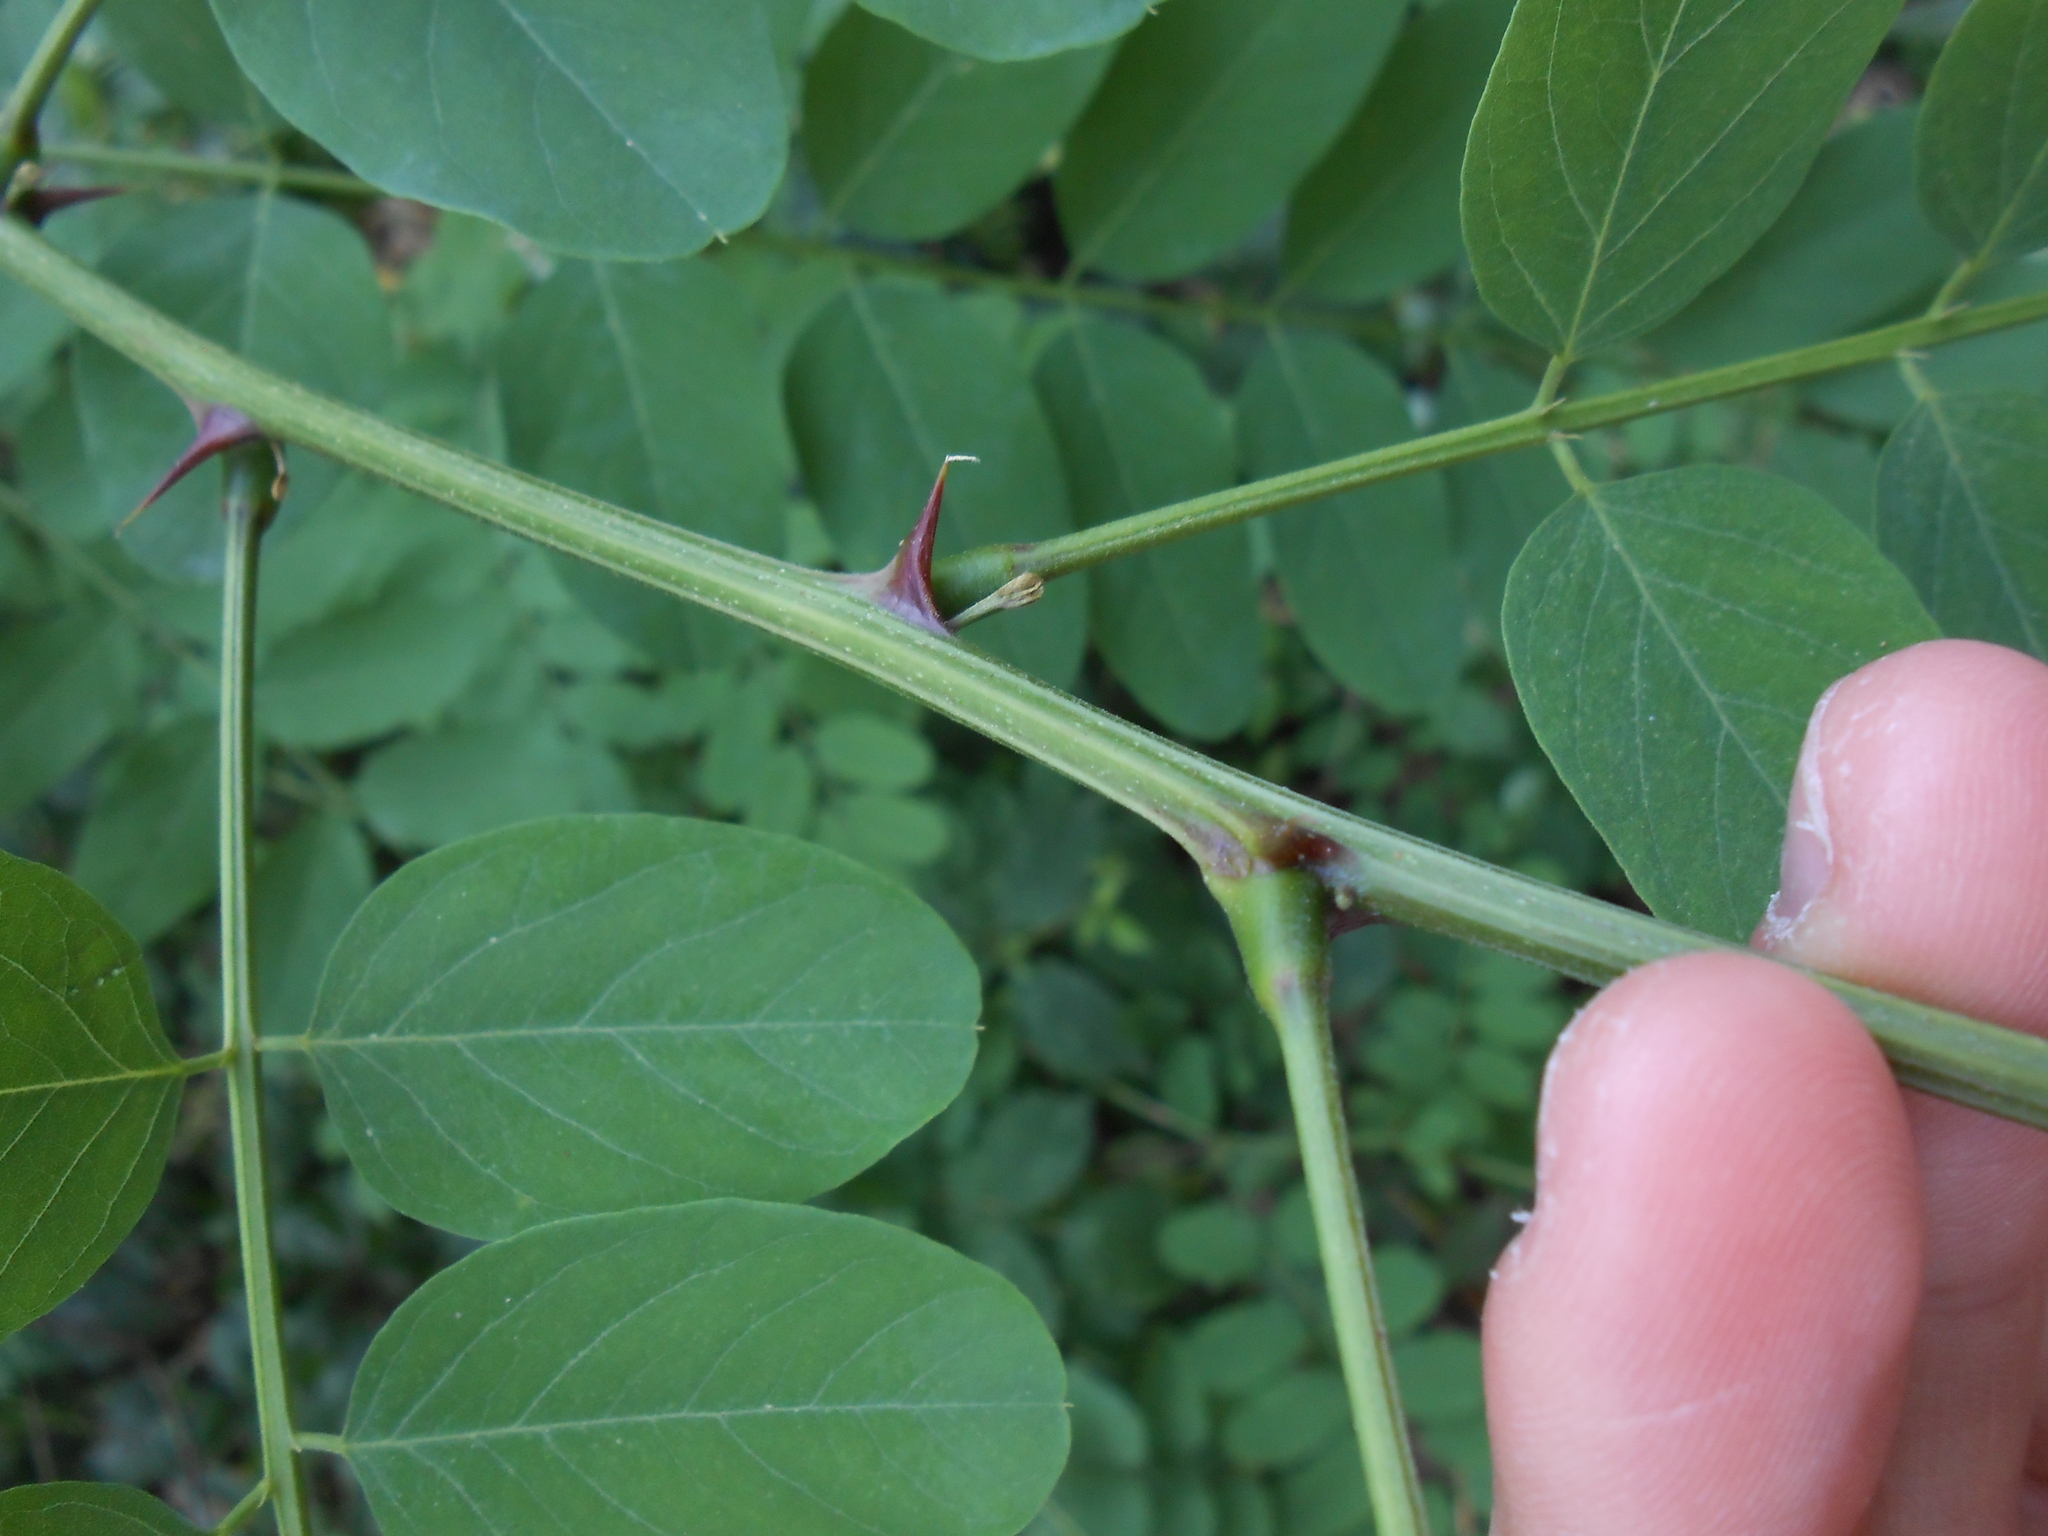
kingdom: Plantae
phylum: Tracheophyta
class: Magnoliopsida
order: Fabales
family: Fabaceae
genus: Robinia
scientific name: Robinia pseudoacacia
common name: Black locust
